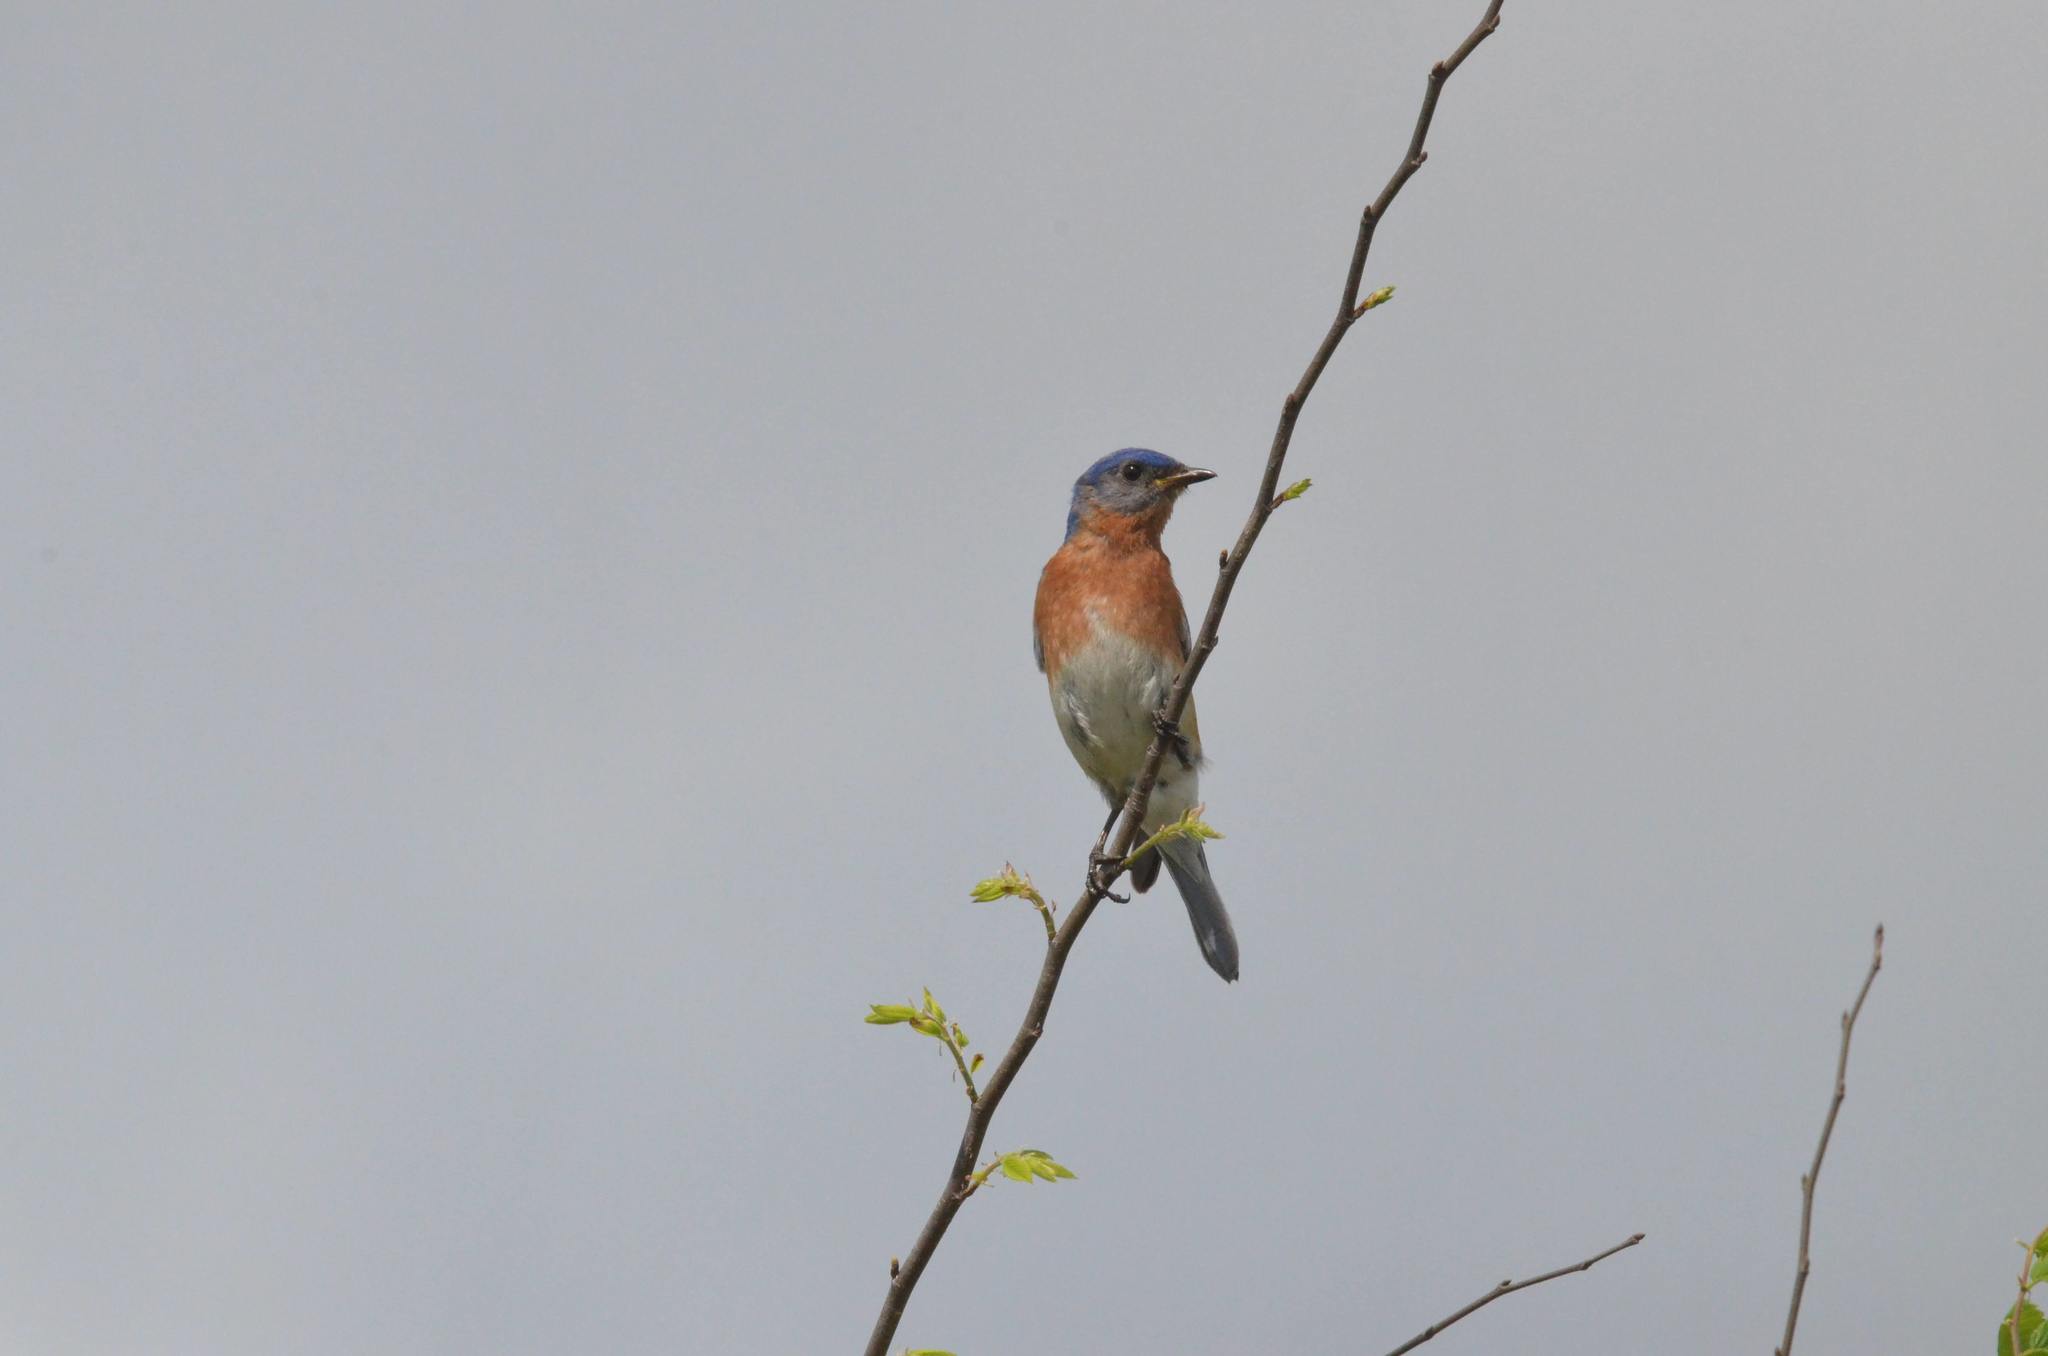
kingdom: Animalia
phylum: Chordata
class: Aves
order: Passeriformes
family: Turdidae
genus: Sialia
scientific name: Sialia sialis
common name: Eastern bluebird
